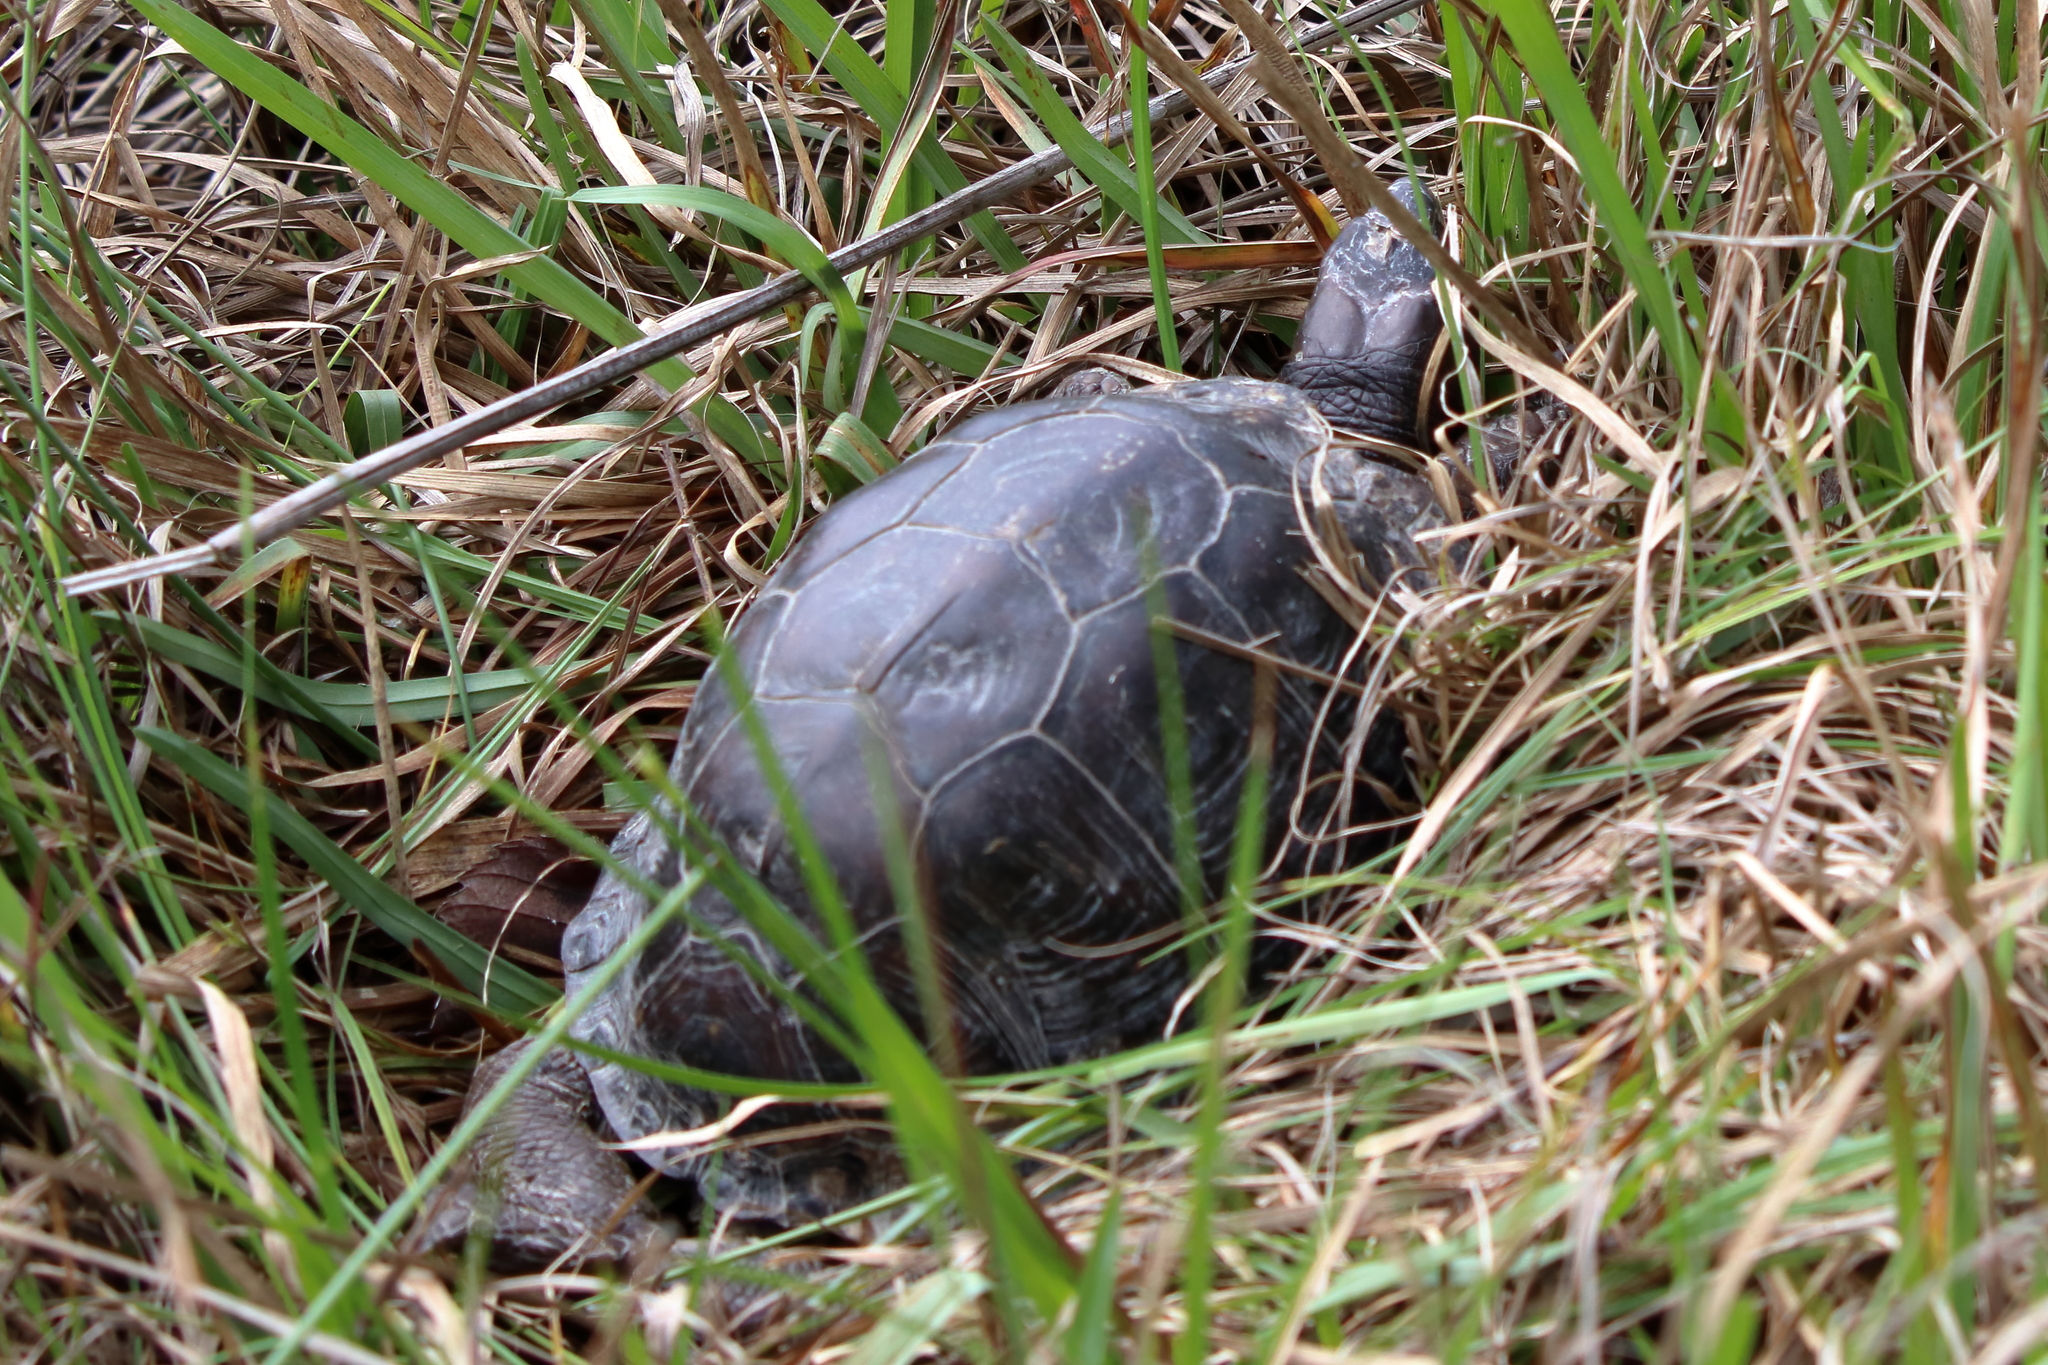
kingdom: Animalia
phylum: Chordata
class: Testudines
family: Emydidae
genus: Terrapene
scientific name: Terrapene carolina
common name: Common box turtle
